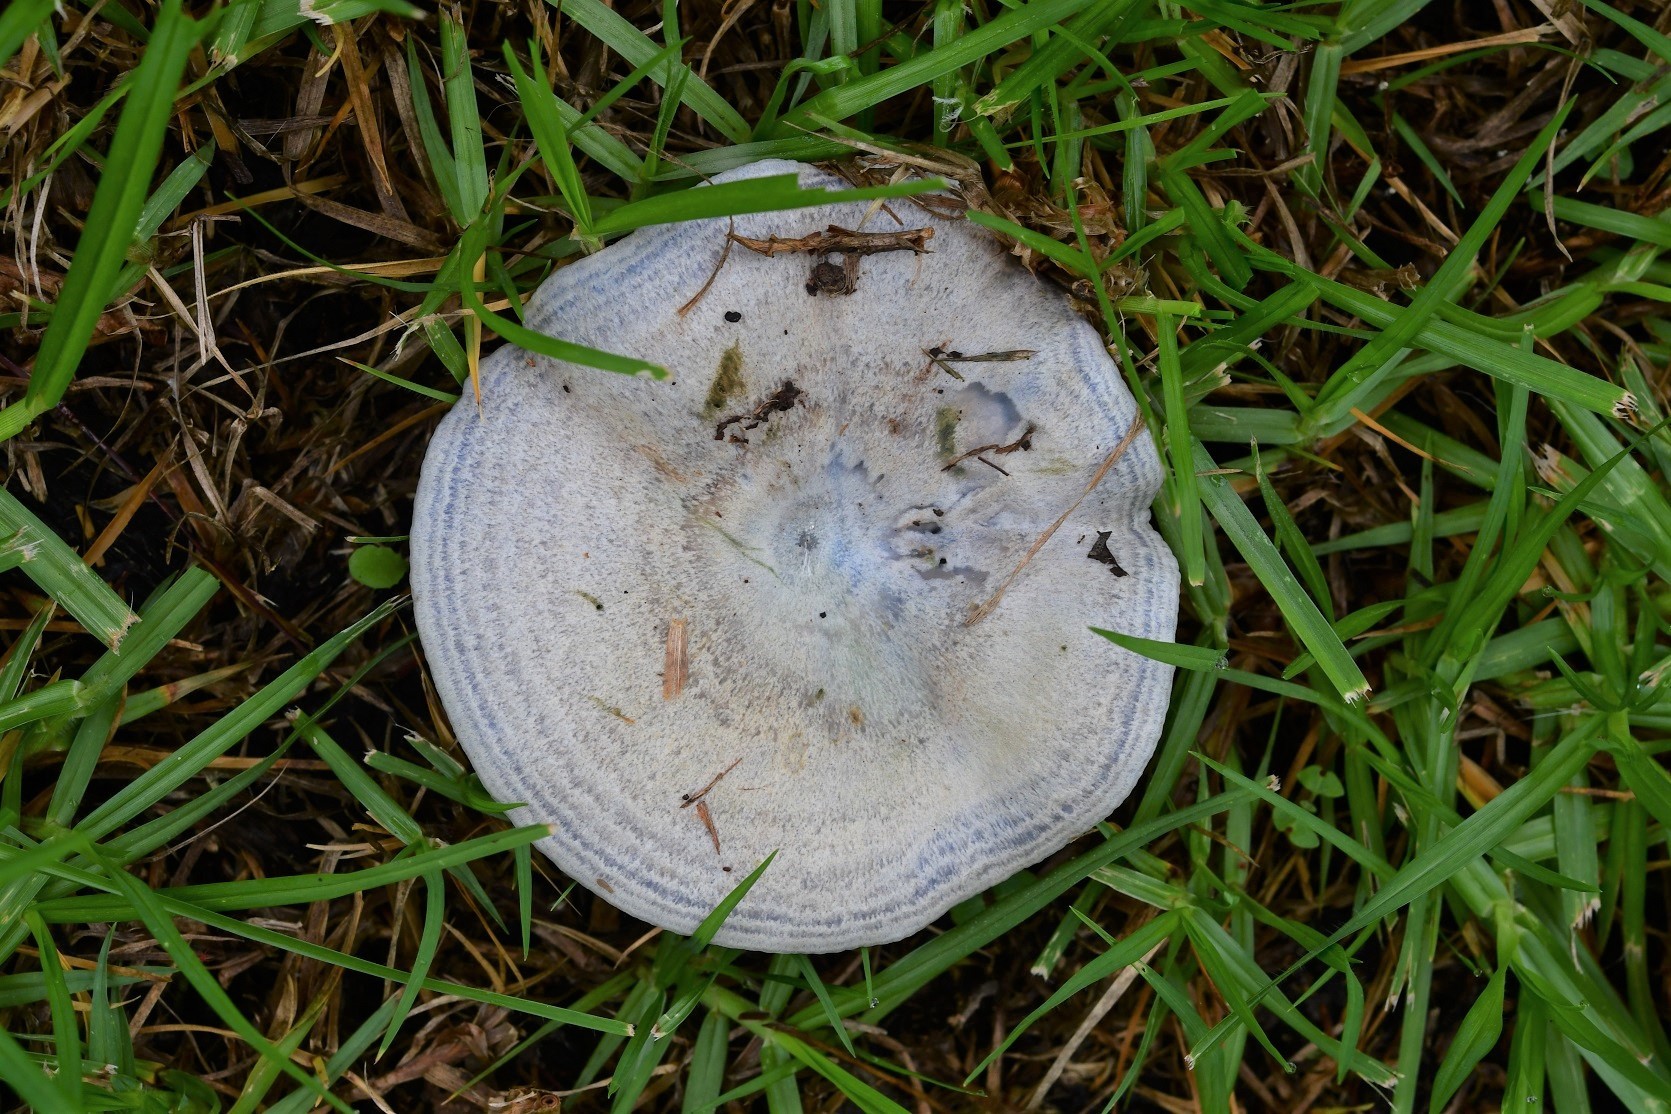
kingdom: Fungi
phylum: Basidiomycota
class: Agaricomycetes
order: Russulales
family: Russulaceae
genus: Lactarius
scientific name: Lactarius indigo
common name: Indigo milk cap
